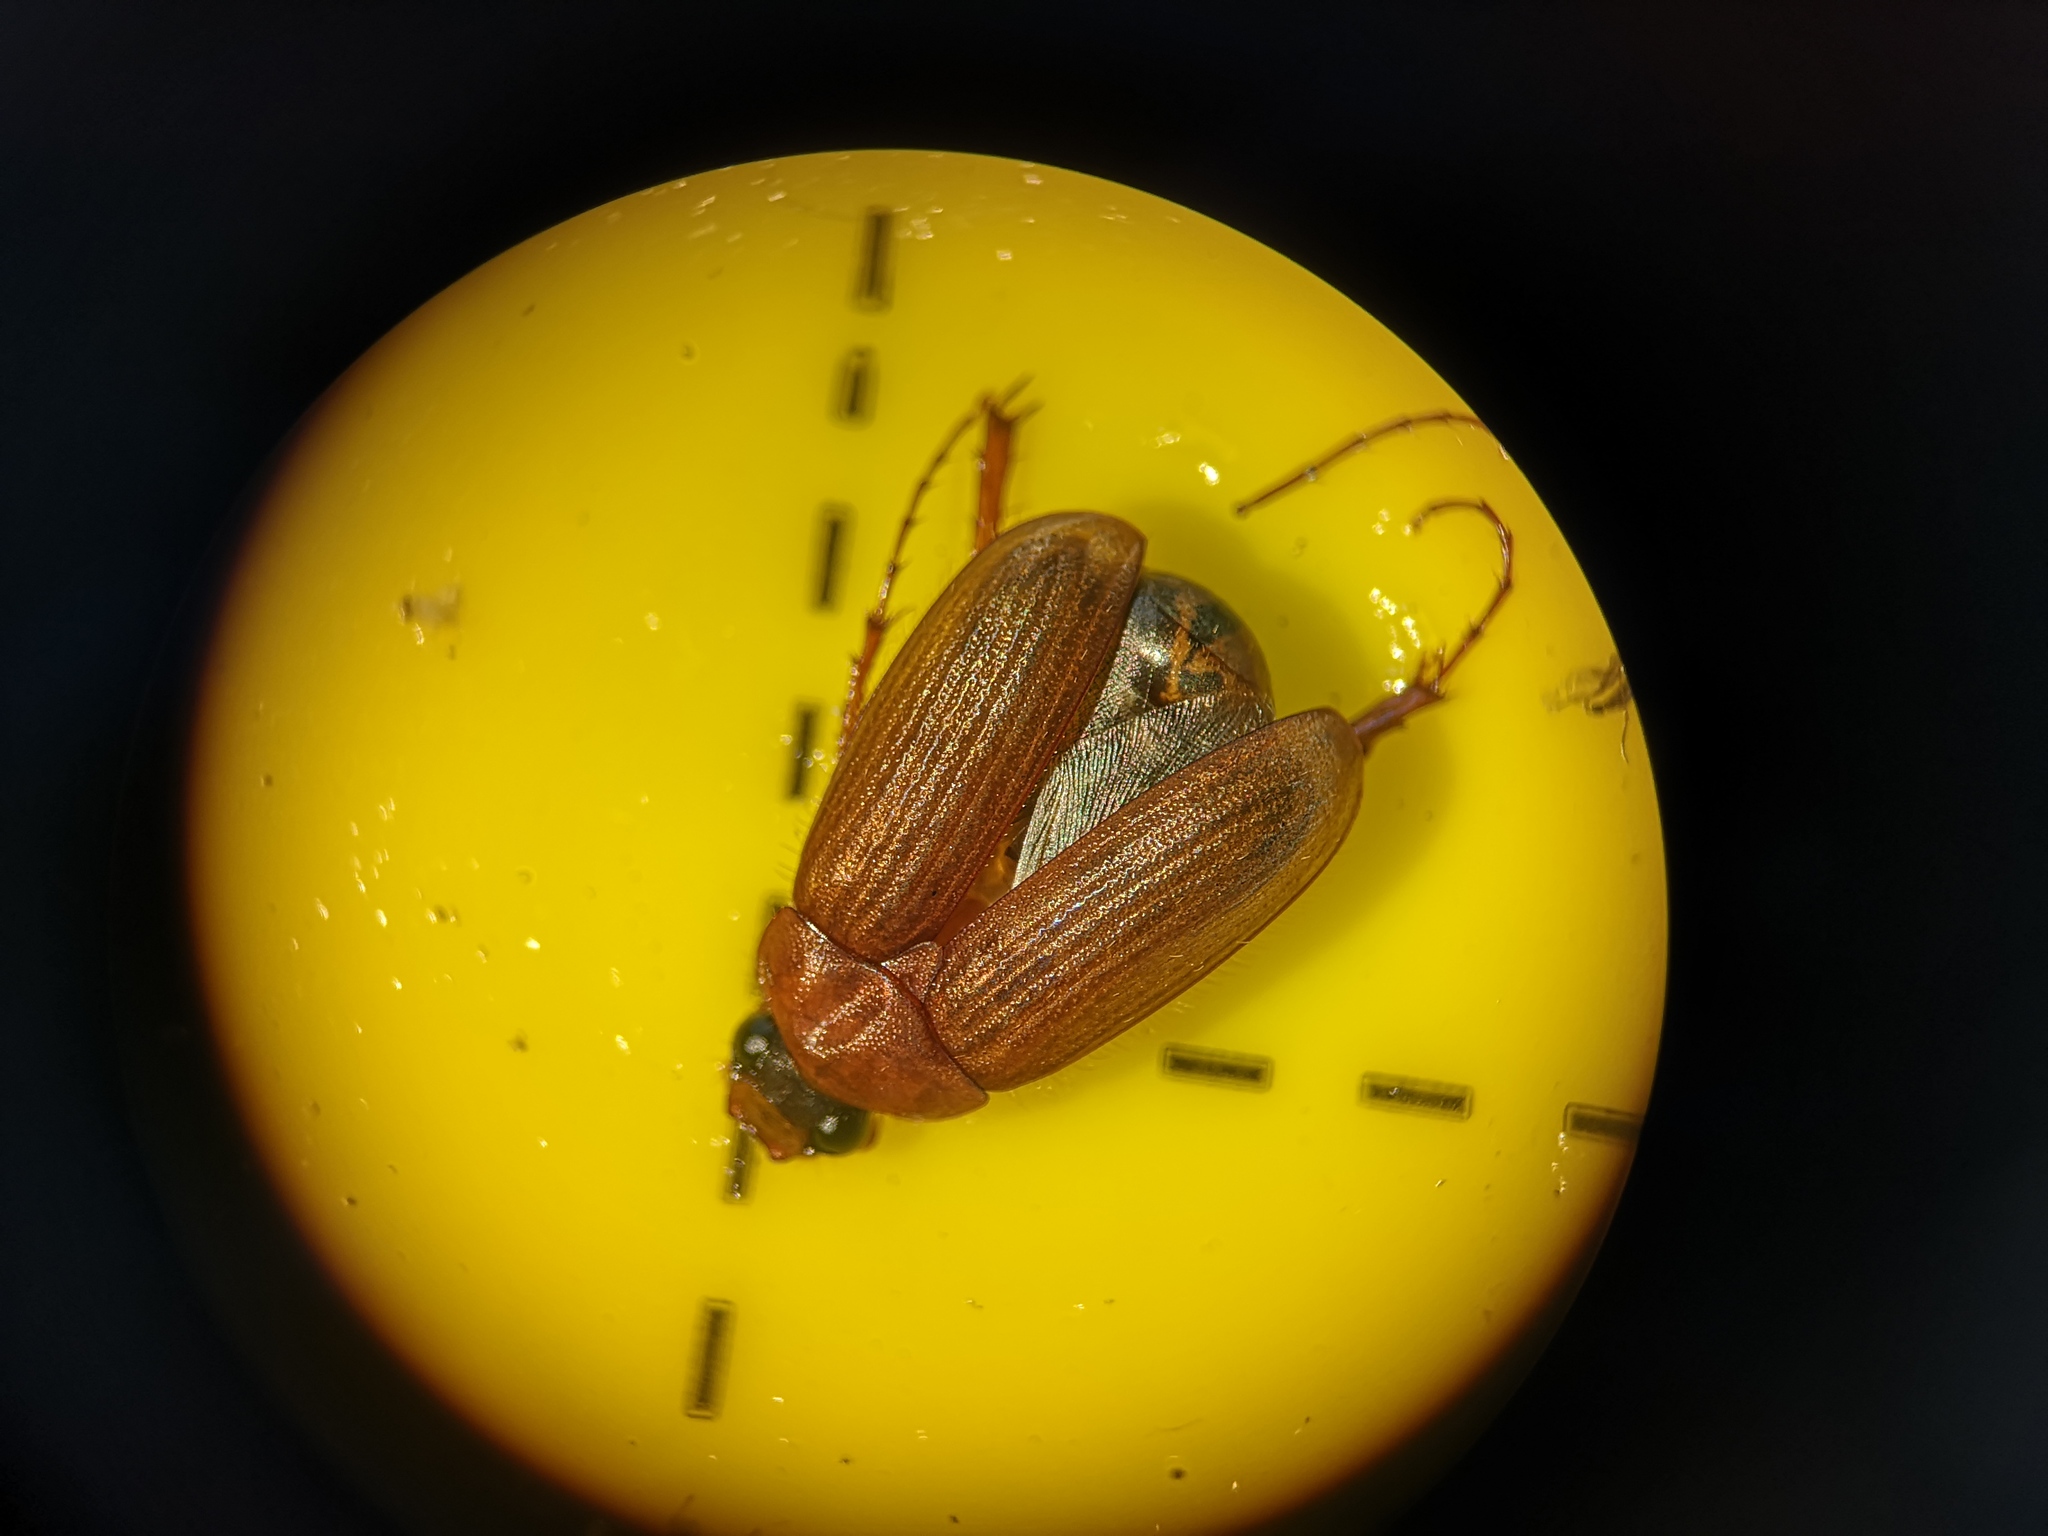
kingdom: Animalia
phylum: Arthropoda
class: Insecta
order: Coleoptera
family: Scarabaeidae
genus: Serica
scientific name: Serica brunnea
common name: Brown chafer
